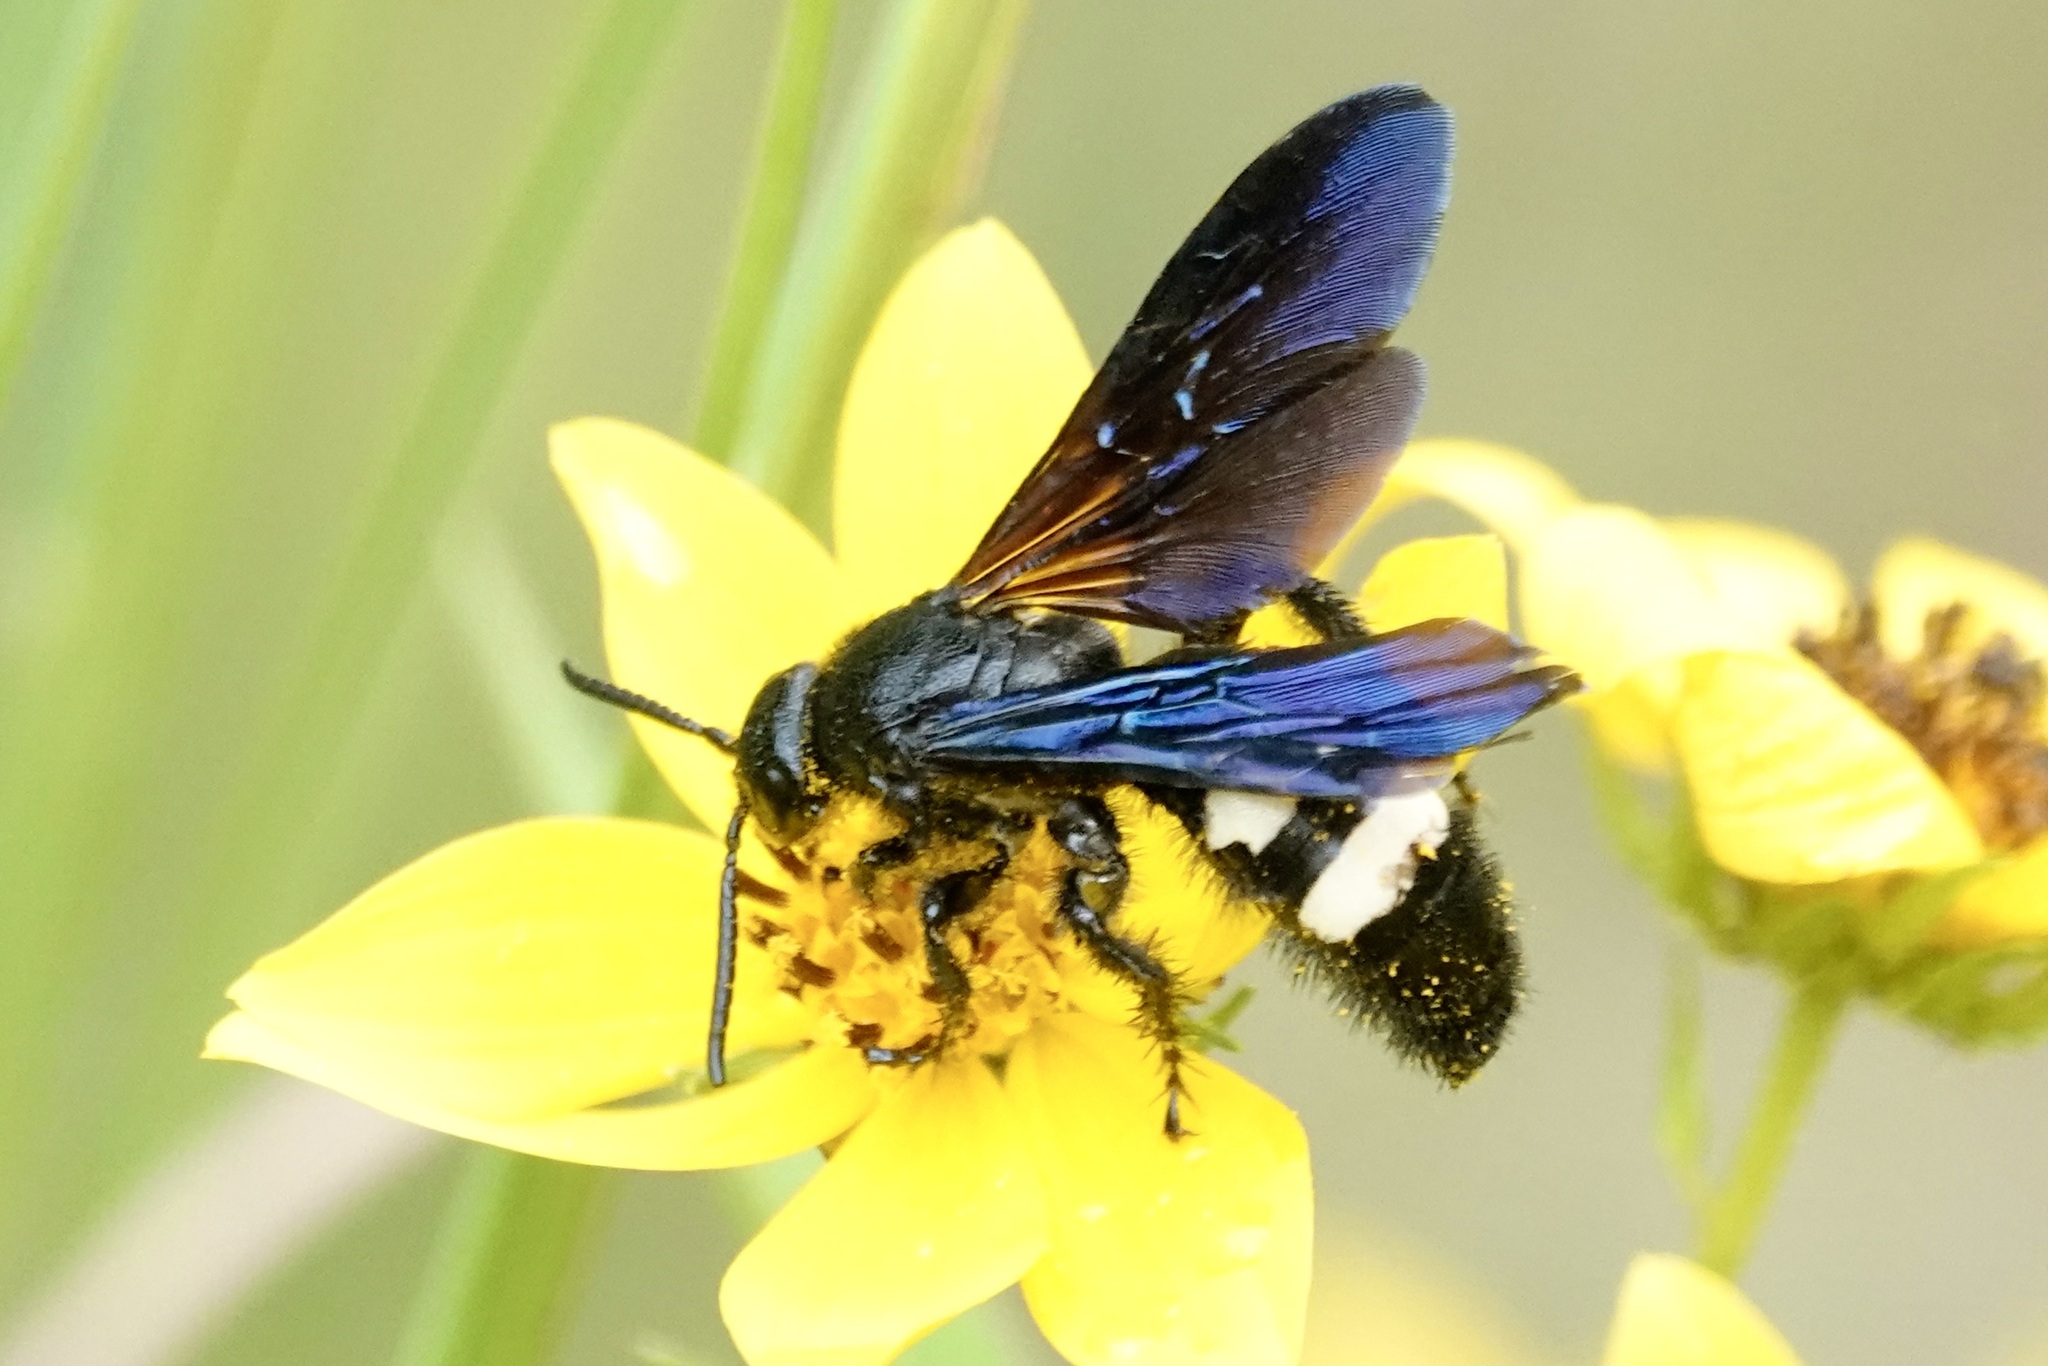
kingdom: Animalia
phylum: Arthropoda
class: Insecta
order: Hymenoptera
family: Scoliidae
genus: Scolia
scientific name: Scolia bicincta
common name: Double-banded scoliid wasp
